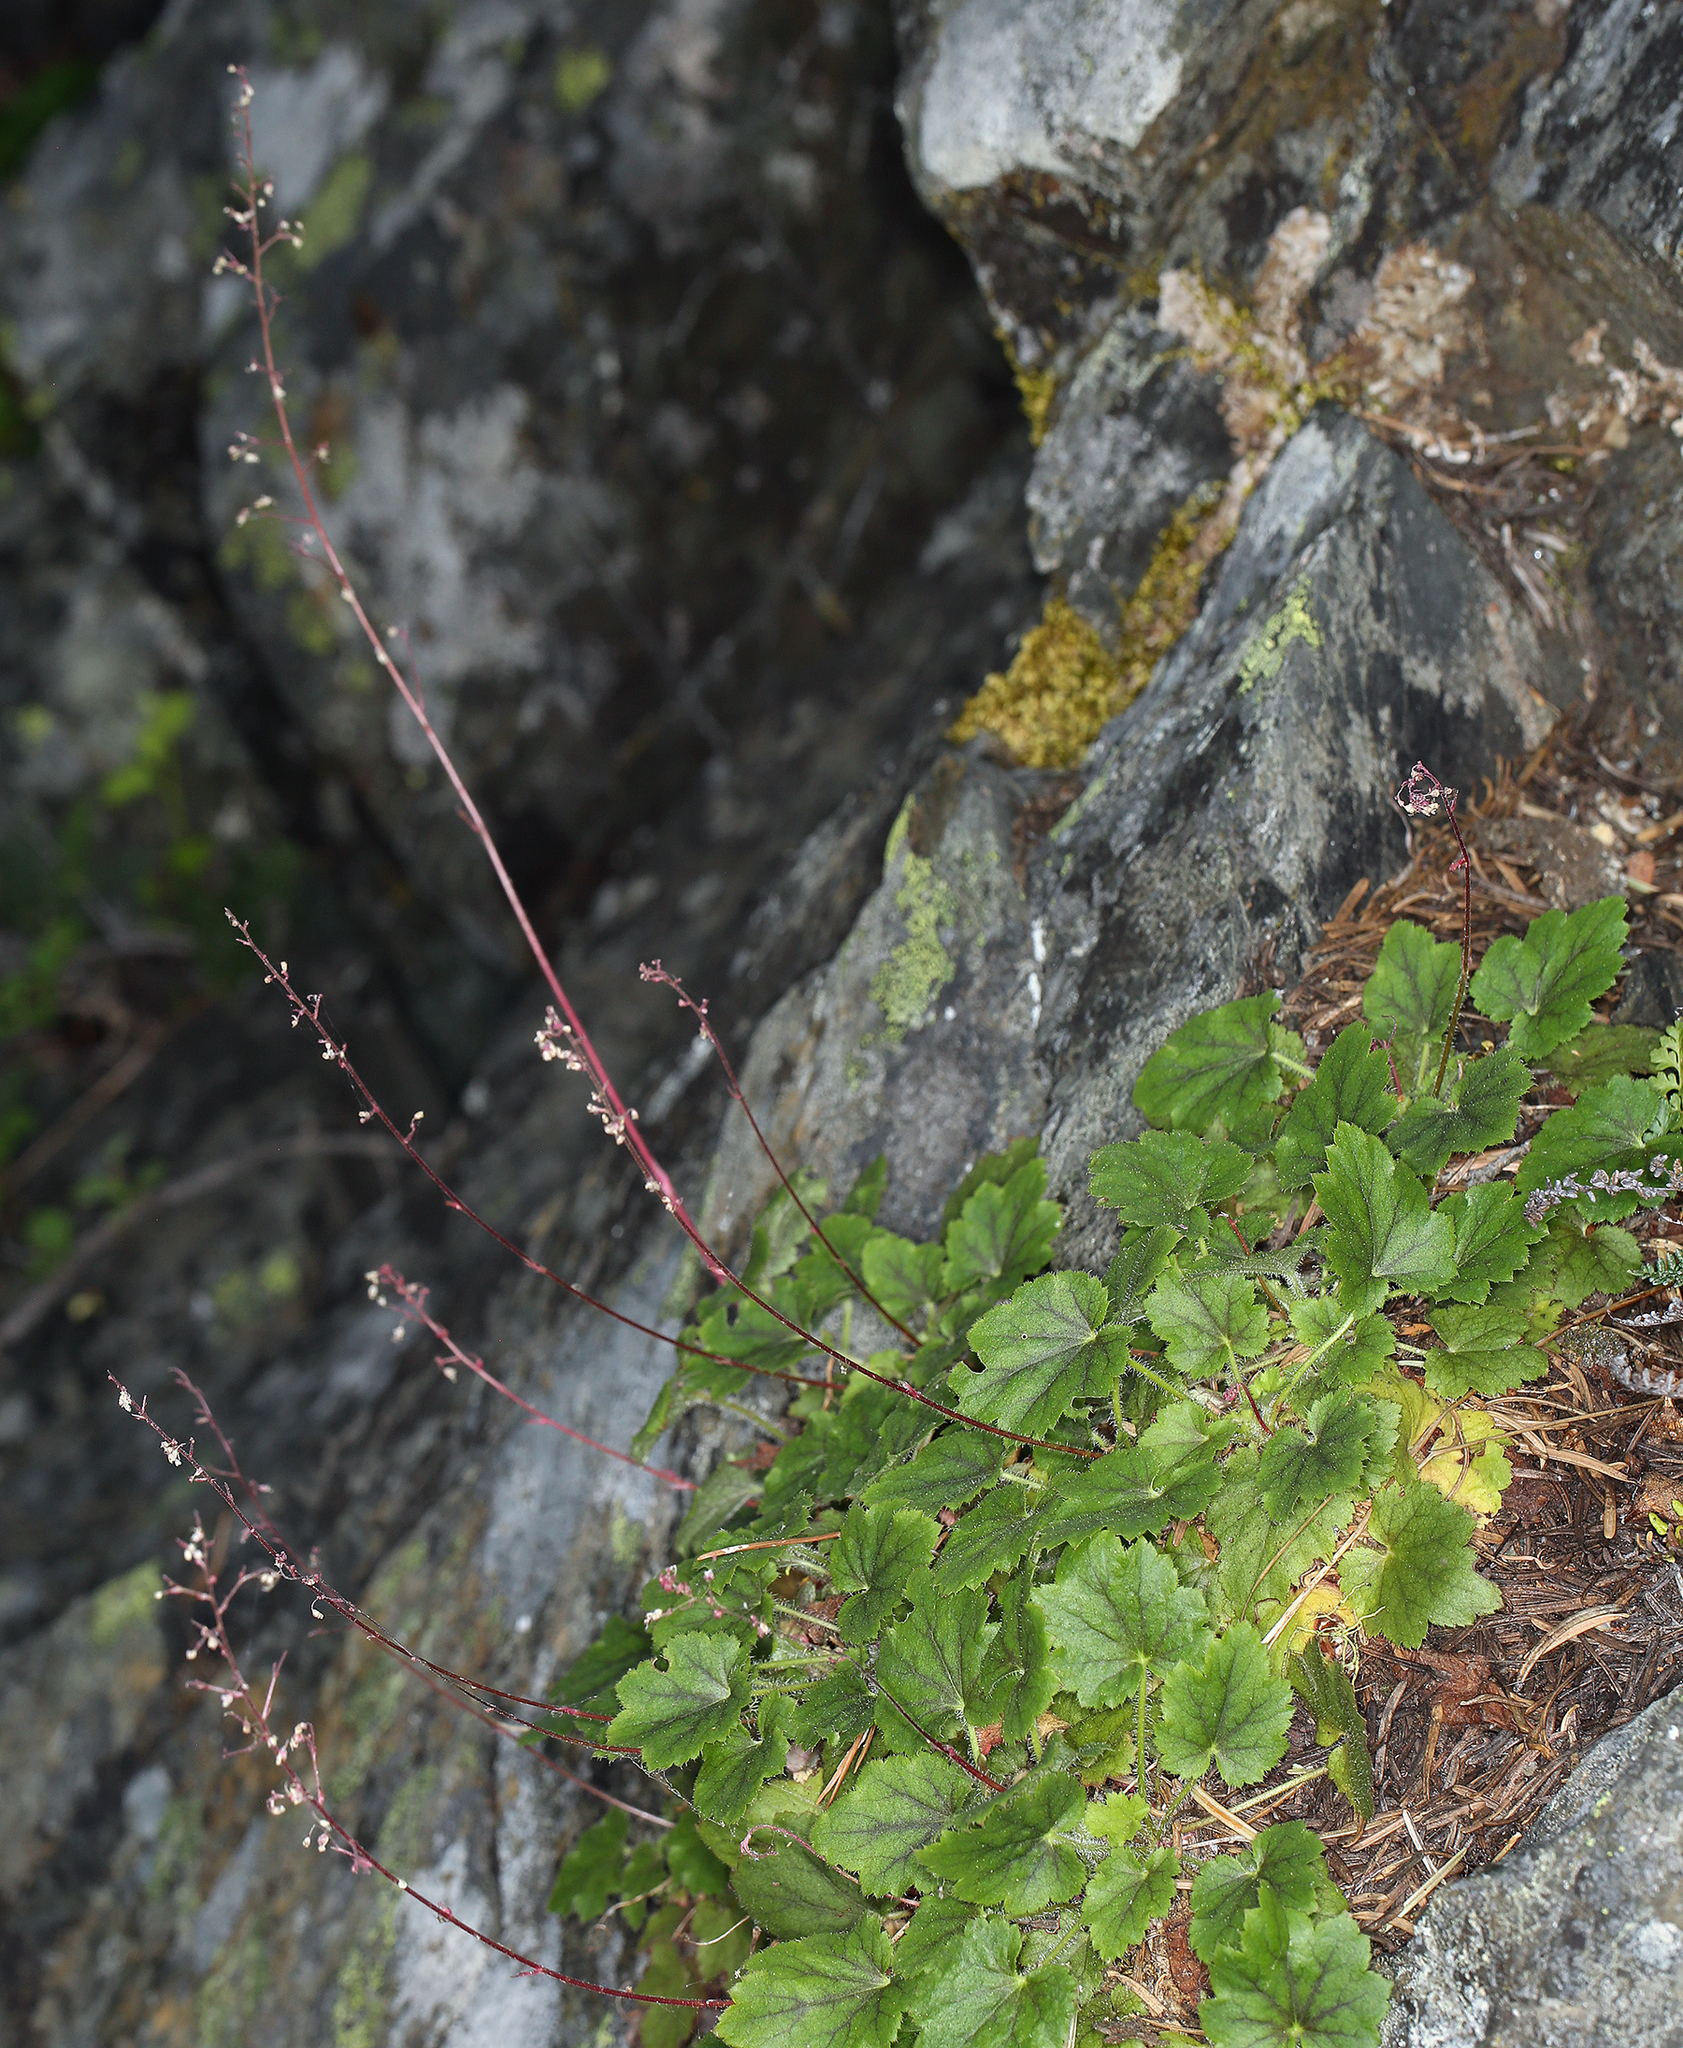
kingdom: Plantae
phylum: Tracheophyta
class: Magnoliopsida
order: Saxifragales
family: Saxifragaceae
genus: Heuchera
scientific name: Heuchera micrantha
